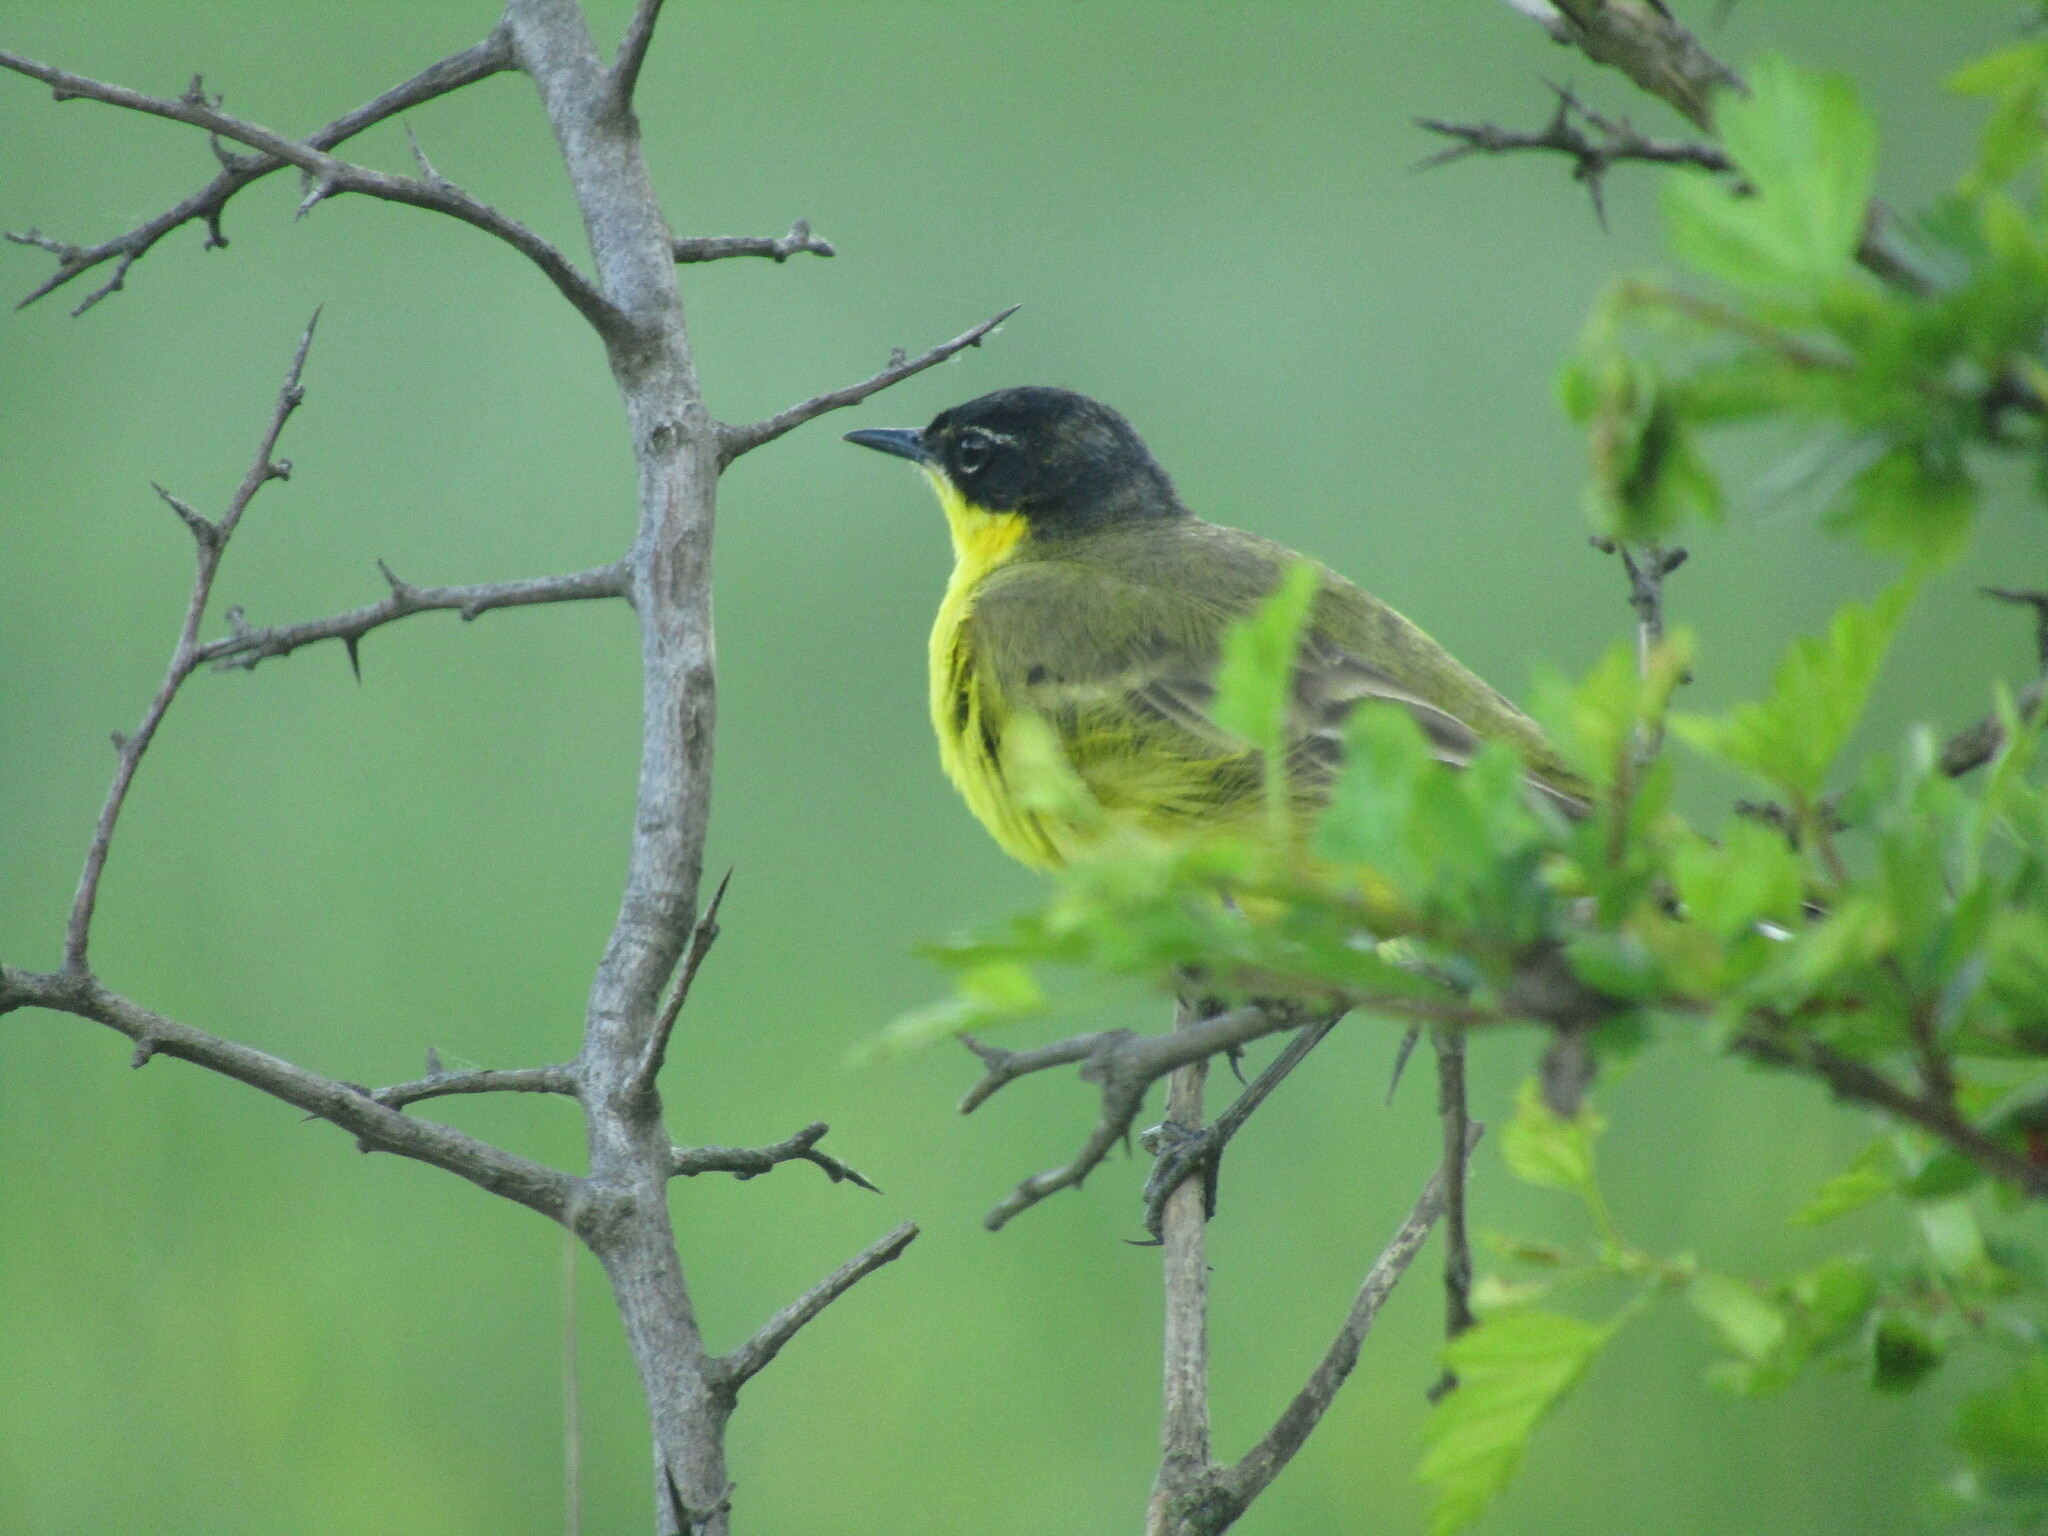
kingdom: Animalia
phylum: Chordata
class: Aves
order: Passeriformes
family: Motacillidae
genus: Motacilla
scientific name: Motacilla flava
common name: Western yellow wagtail
